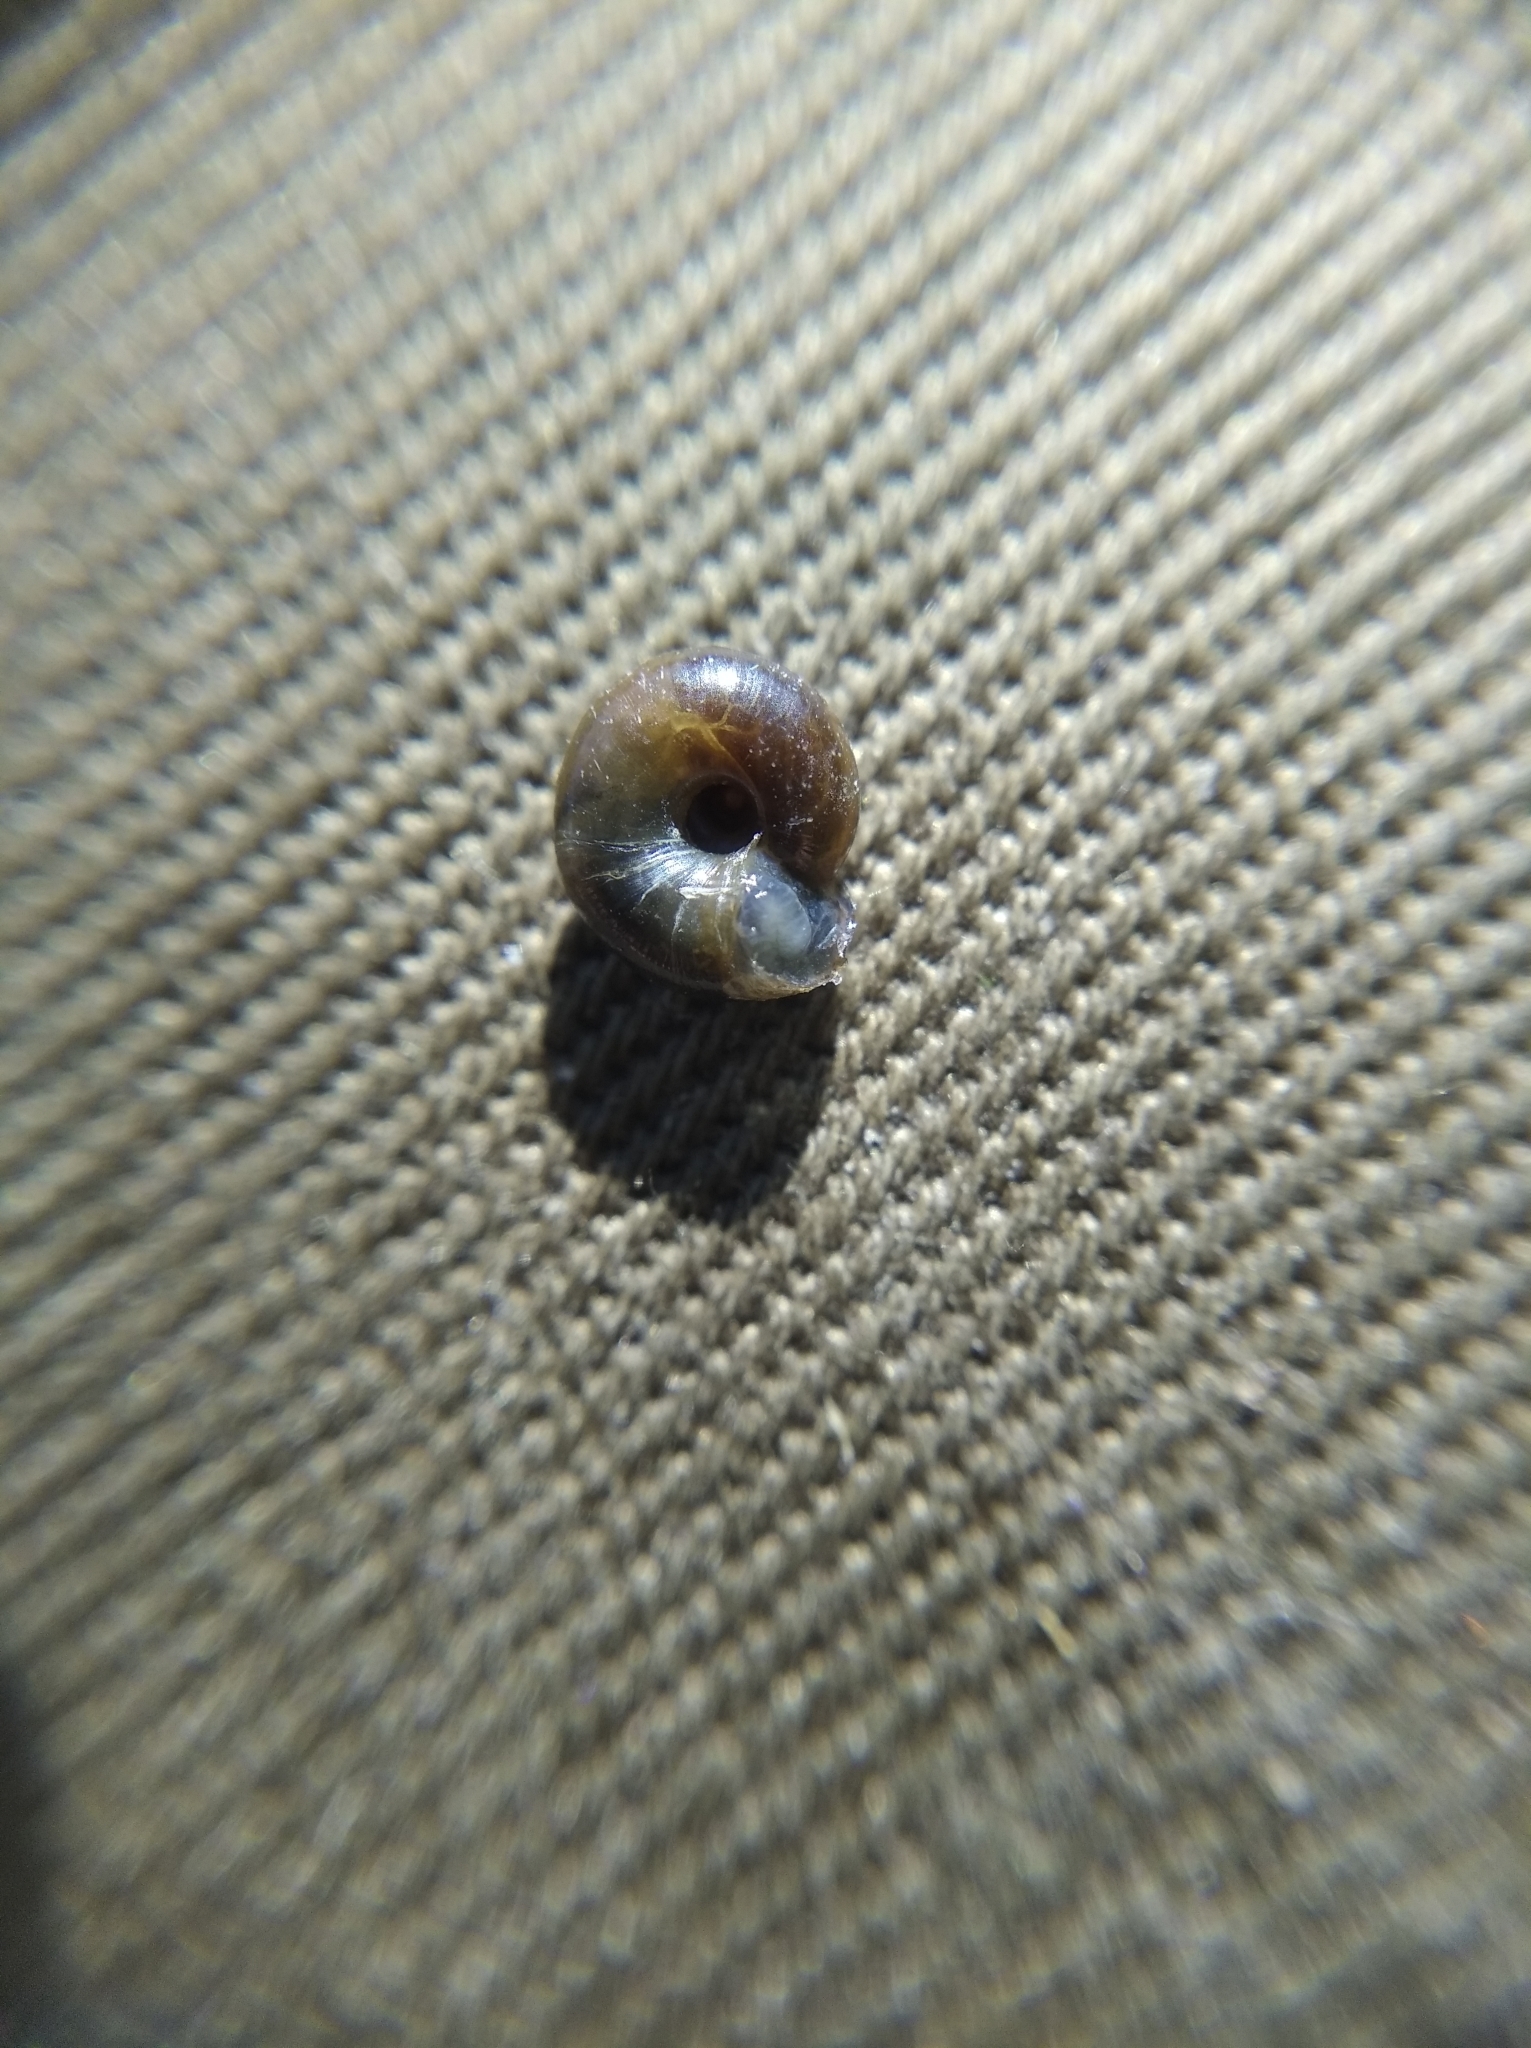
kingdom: Animalia
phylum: Mollusca
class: Gastropoda
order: Stylommatophora
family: Gastrodontidae
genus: Aegopinella
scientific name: Aegopinella minor
